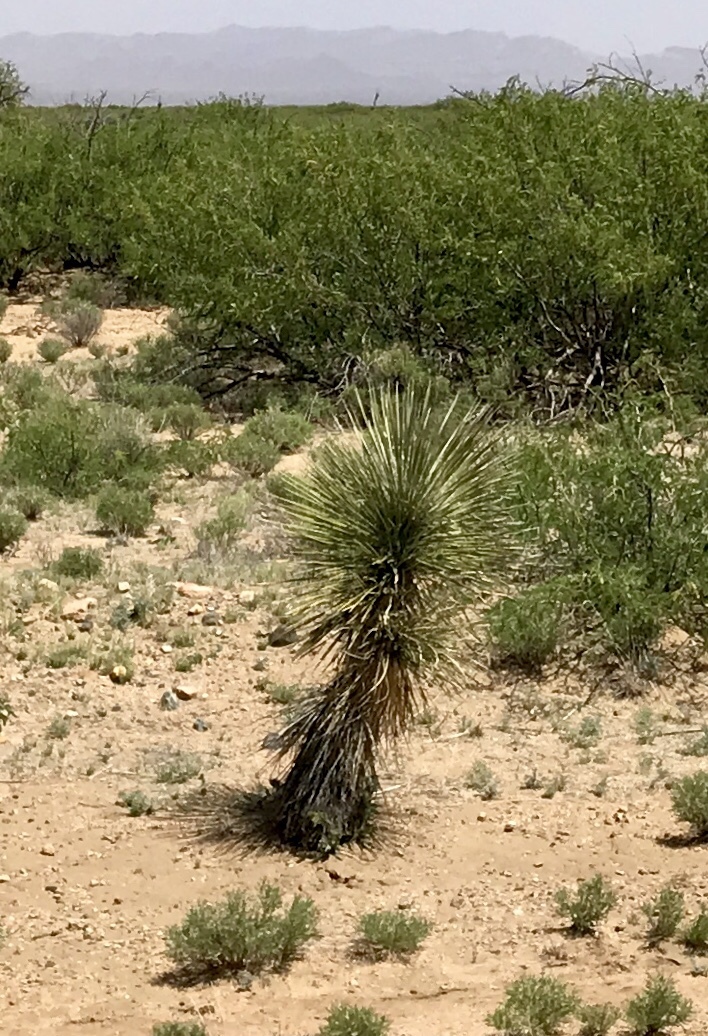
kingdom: Plantae
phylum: Tracheophyta
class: Liliopsida
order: Asparagales
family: Asparagaceae
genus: Yucca
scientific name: Yucca elata
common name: Palmella
